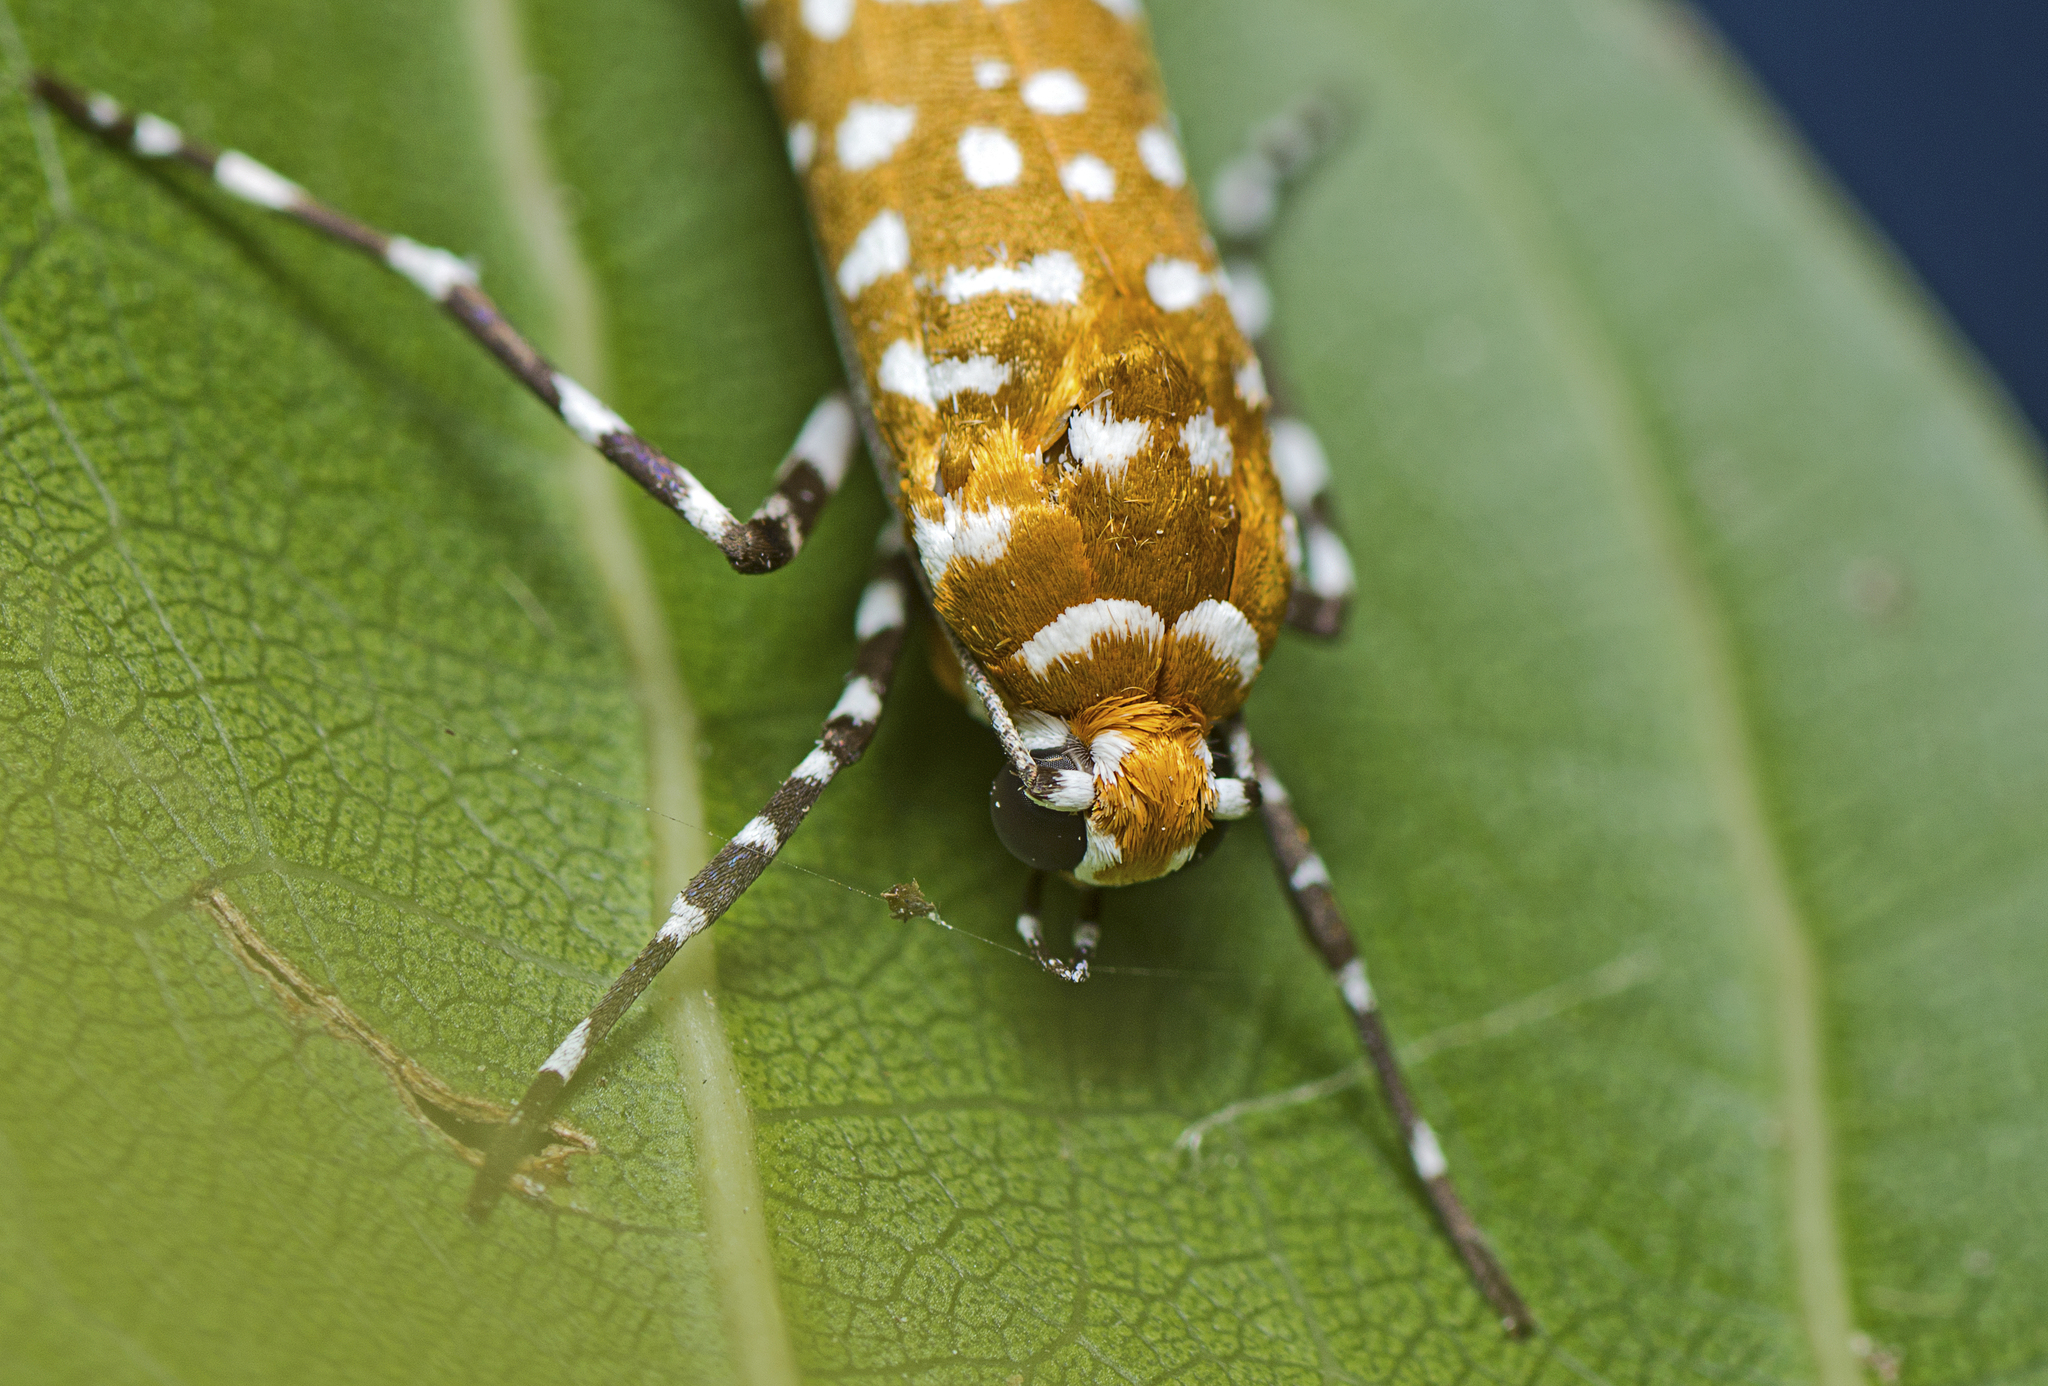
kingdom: Animalia
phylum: Arthropoda
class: Insecta
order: Lepidoptera
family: Attevidae
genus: Atteva
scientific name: Atteva albiguttata
